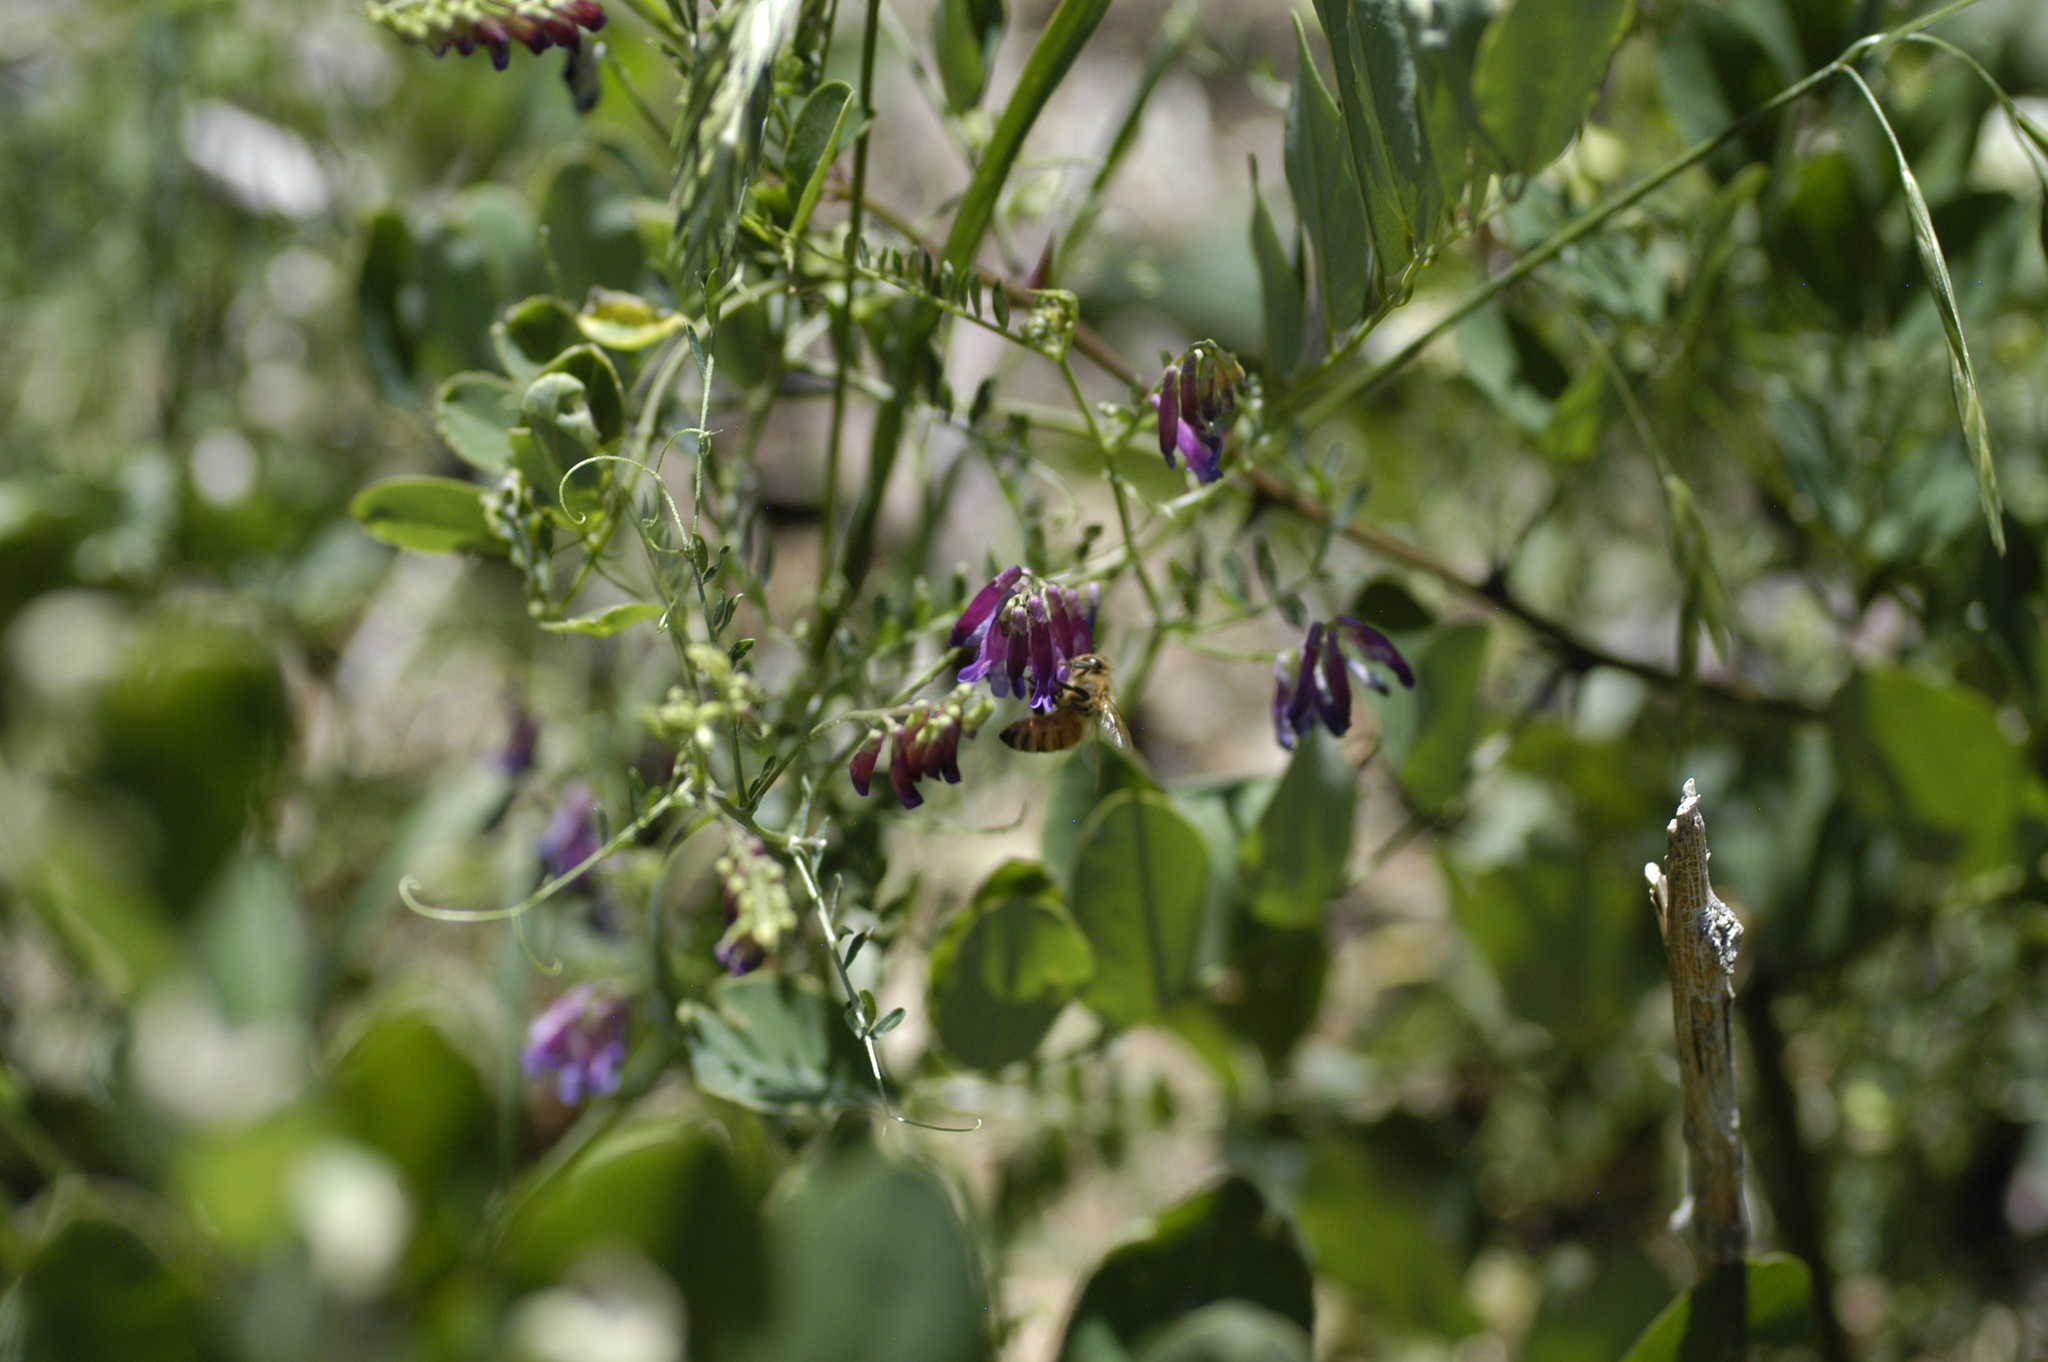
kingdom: Animalia
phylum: Arthropoda
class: Insecta
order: Hymenoptera
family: Apidae
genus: Apis
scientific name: Apis mellifera
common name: Honey bee
